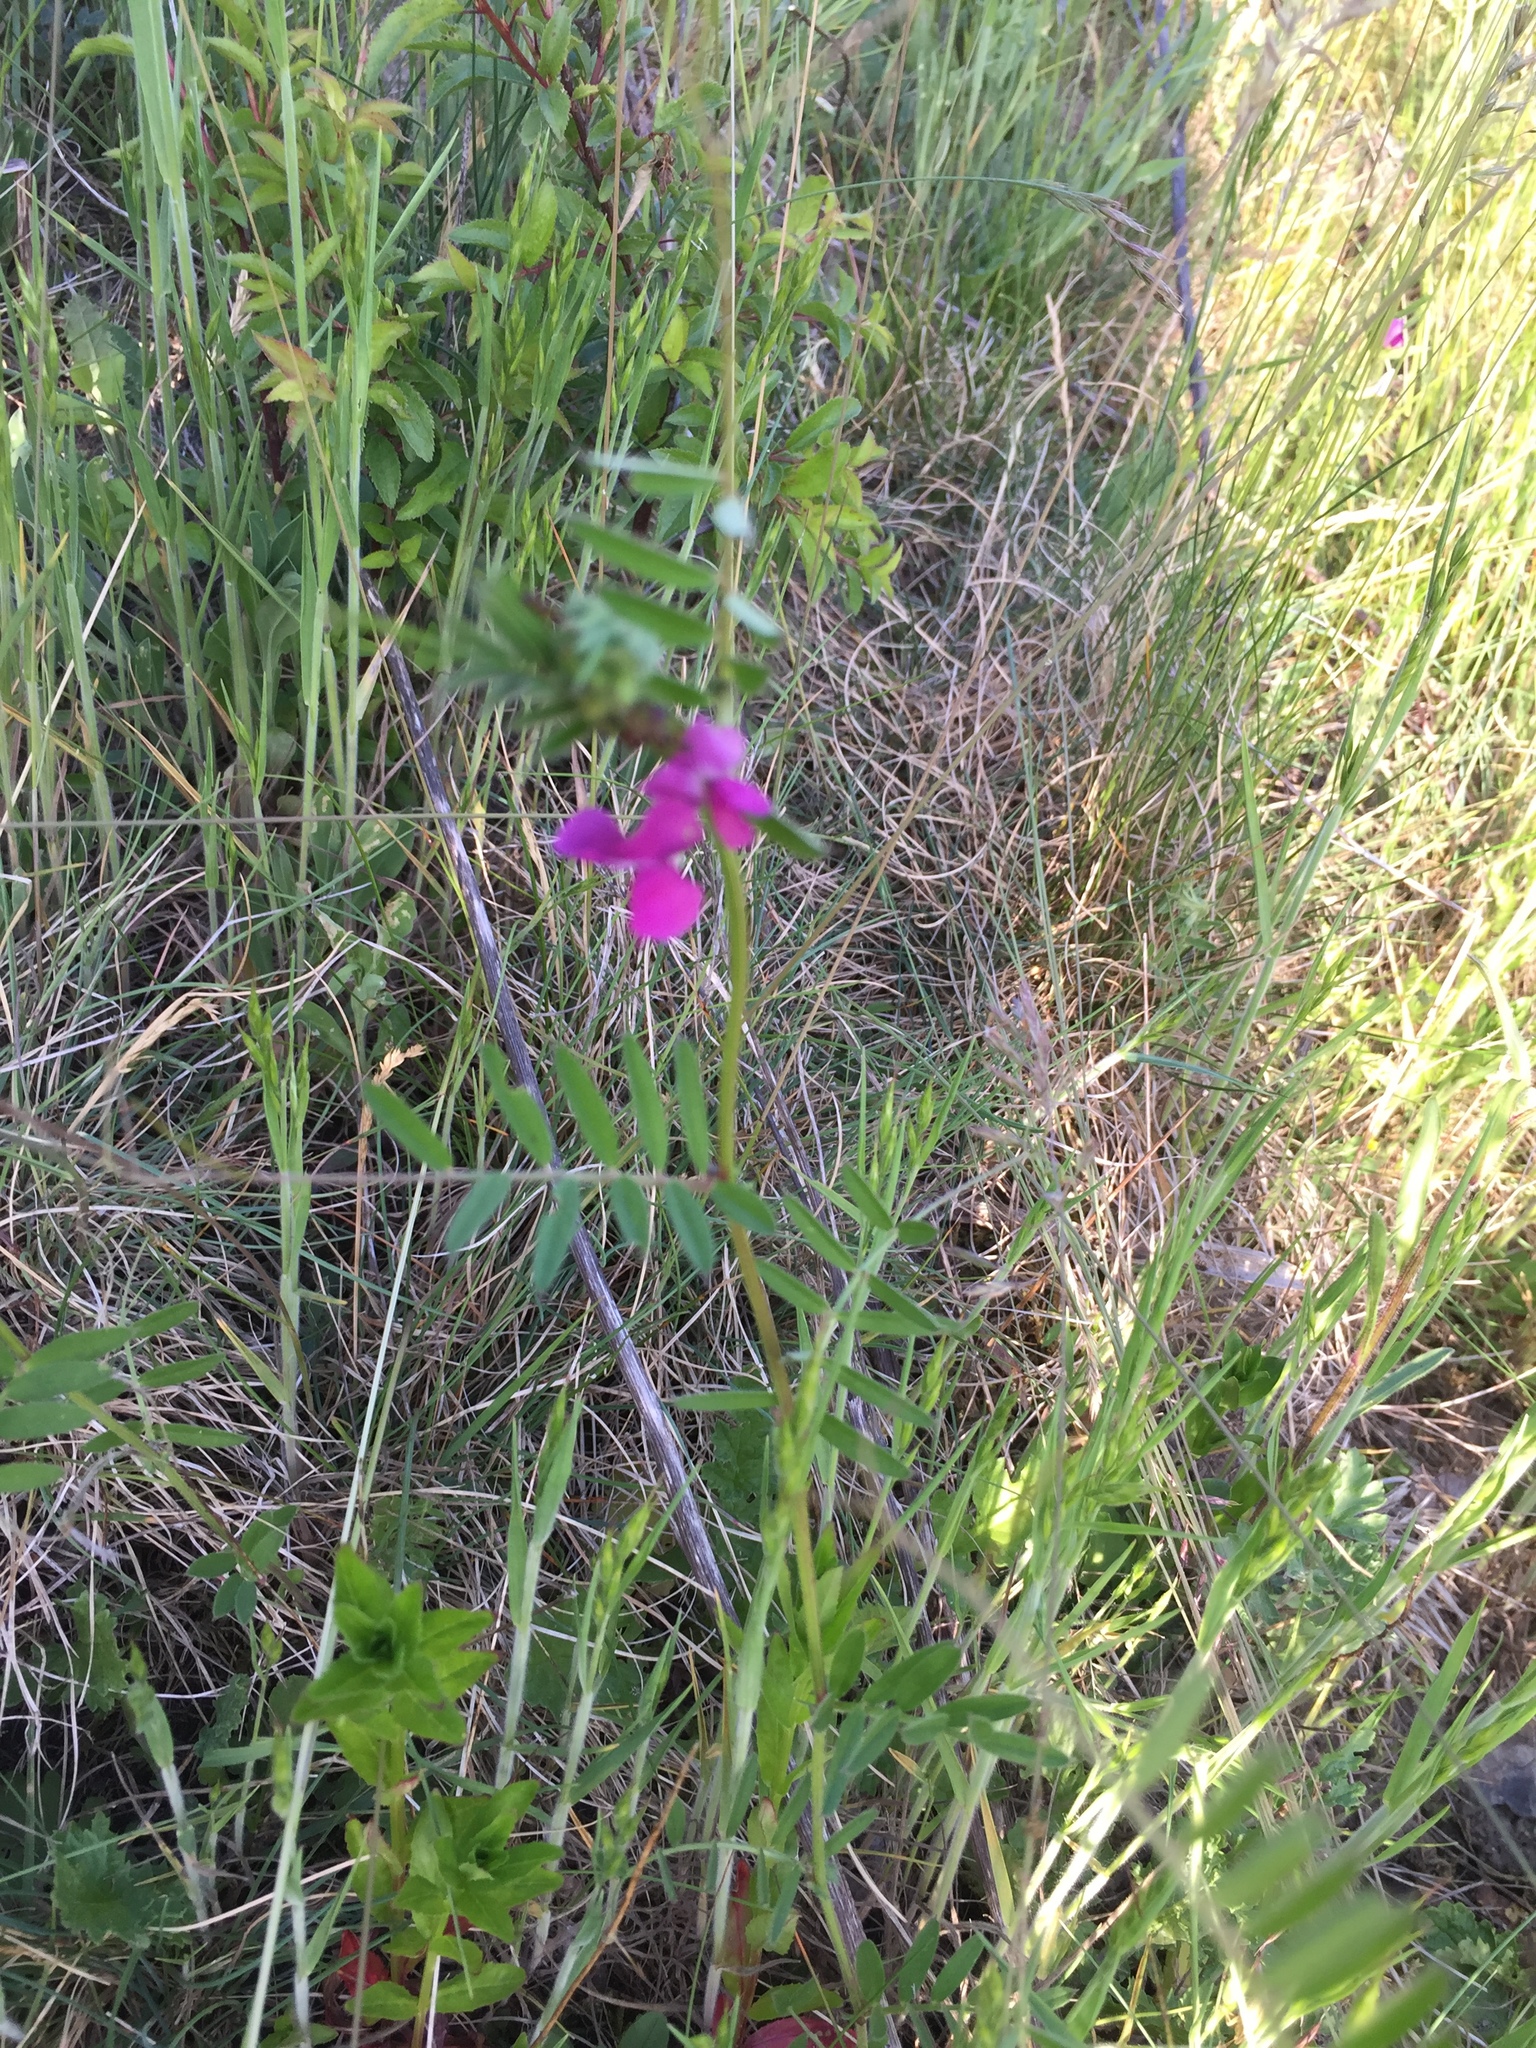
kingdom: Plantae
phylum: Tracheophyta
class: Magnoliopsida
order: Fabales
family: Fabaceae
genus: Vicia
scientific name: Vicia sativa
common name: Garden vetch
